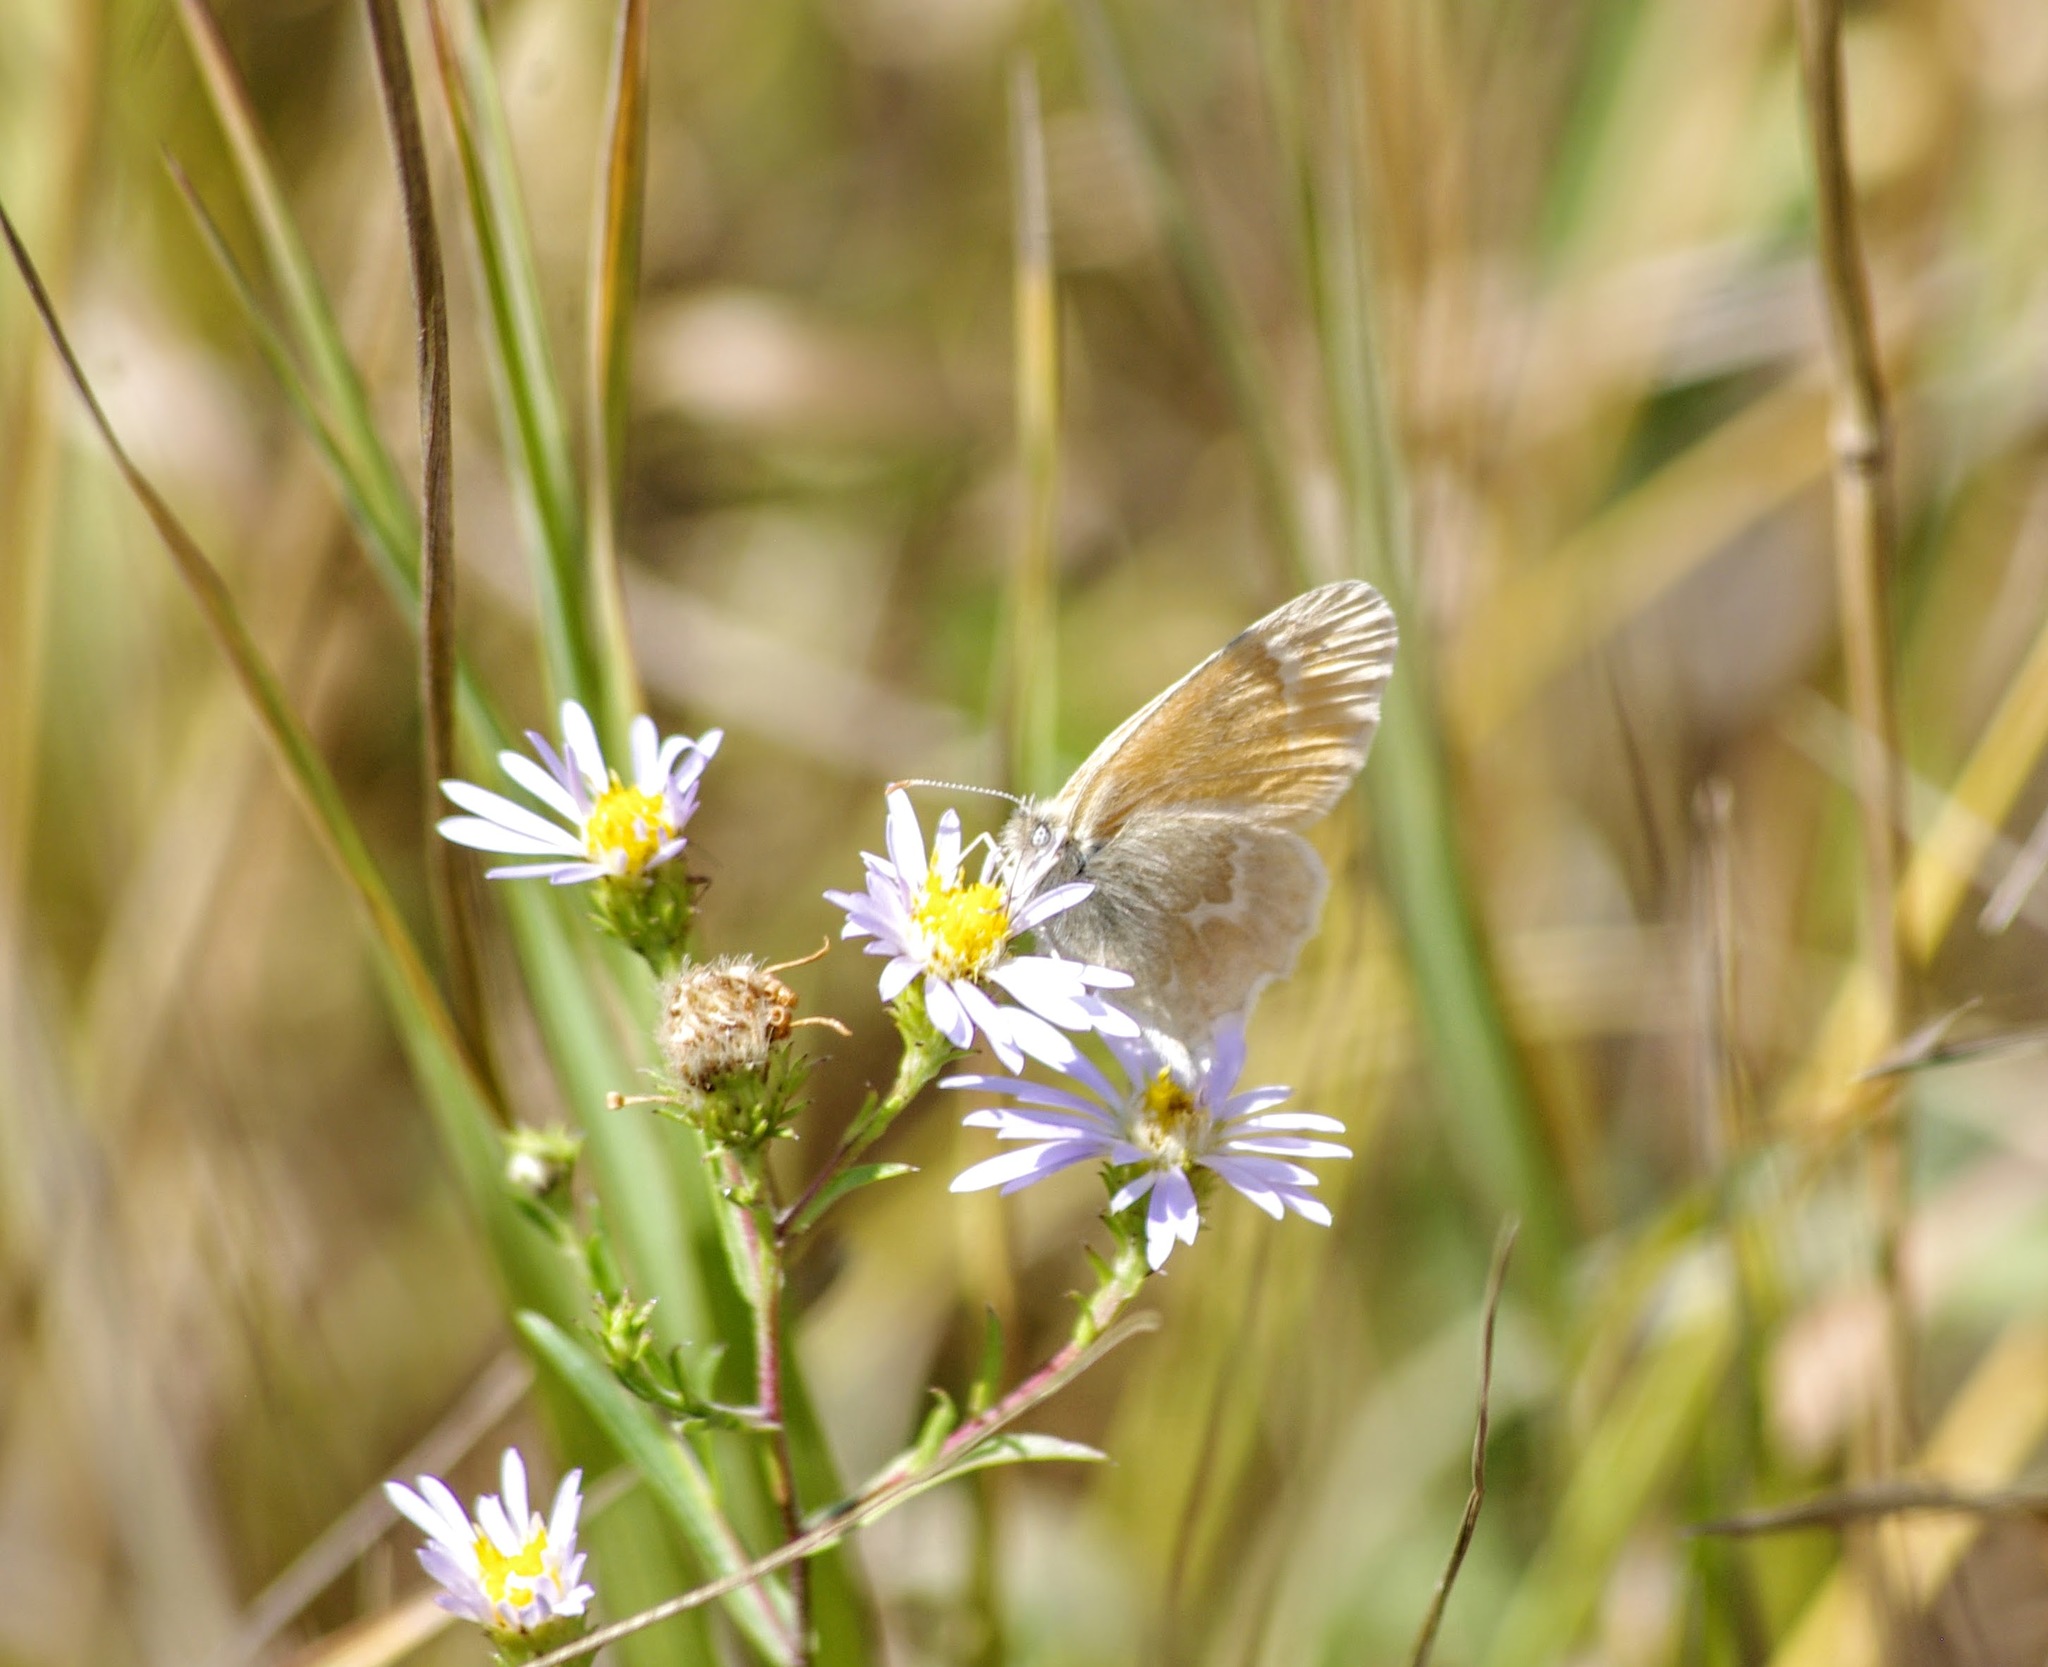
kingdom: Animalia
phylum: Arthropoda
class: Insecta
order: Lepidoptera
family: Nymphalidae
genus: Coenonympha
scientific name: Coenonympha california
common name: Common ringlet
